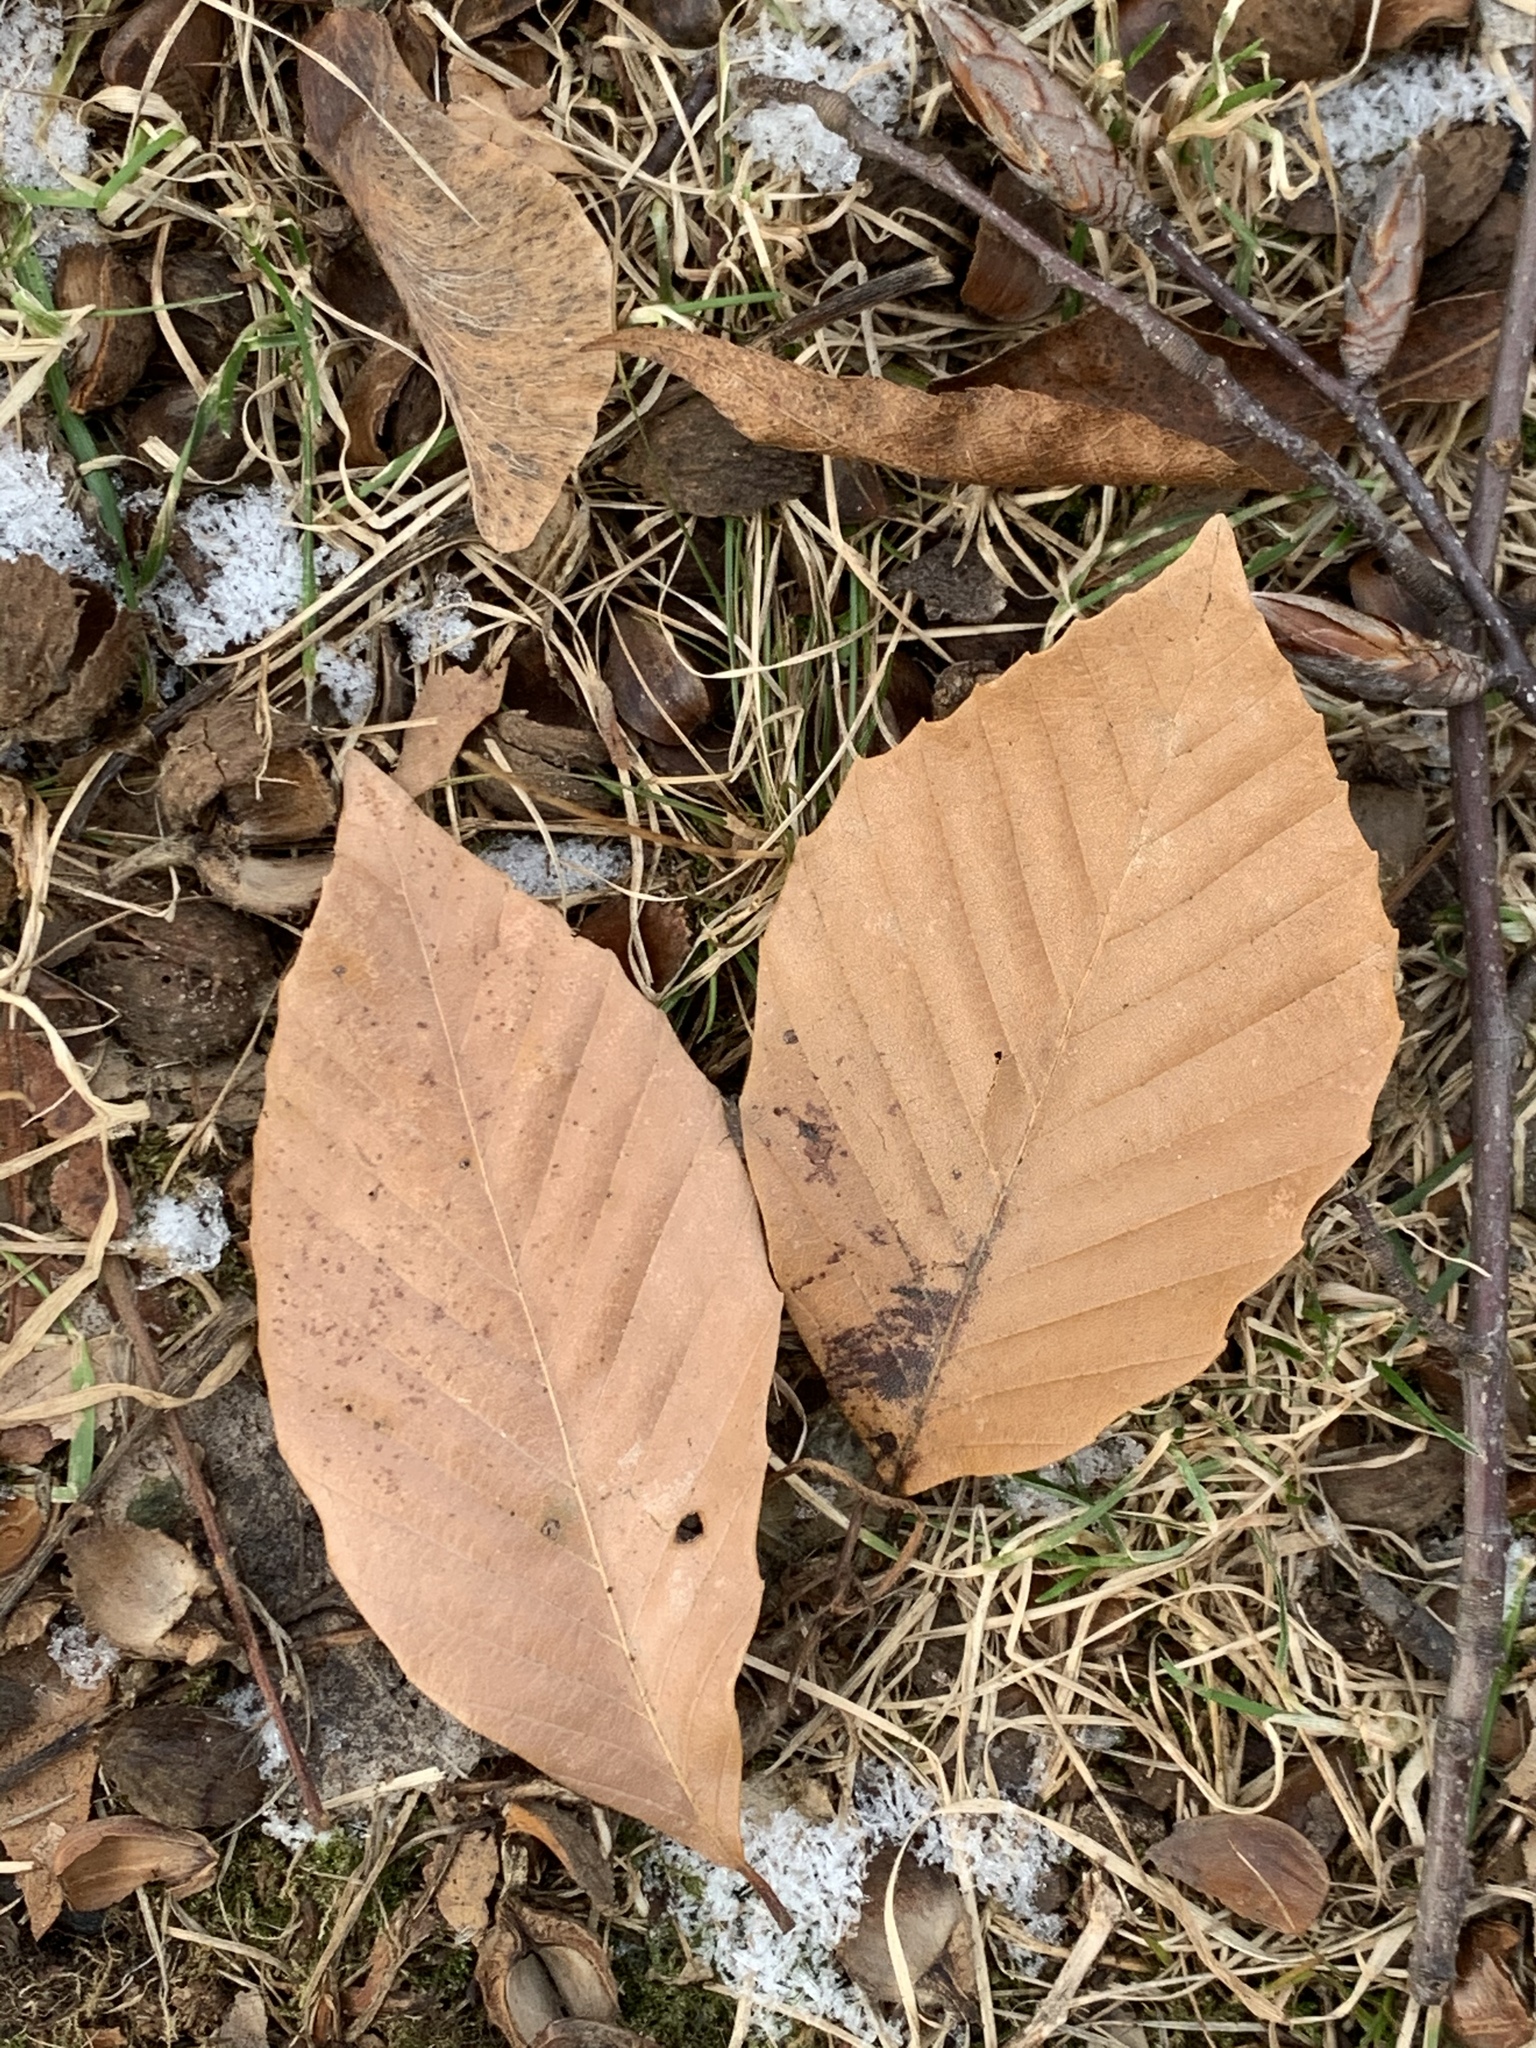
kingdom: Plantae
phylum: Tracheophyta
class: Magnoliopsida
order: Fagales
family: Fagaceae
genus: Fagus
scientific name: Fagus grandifolia
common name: American beech
